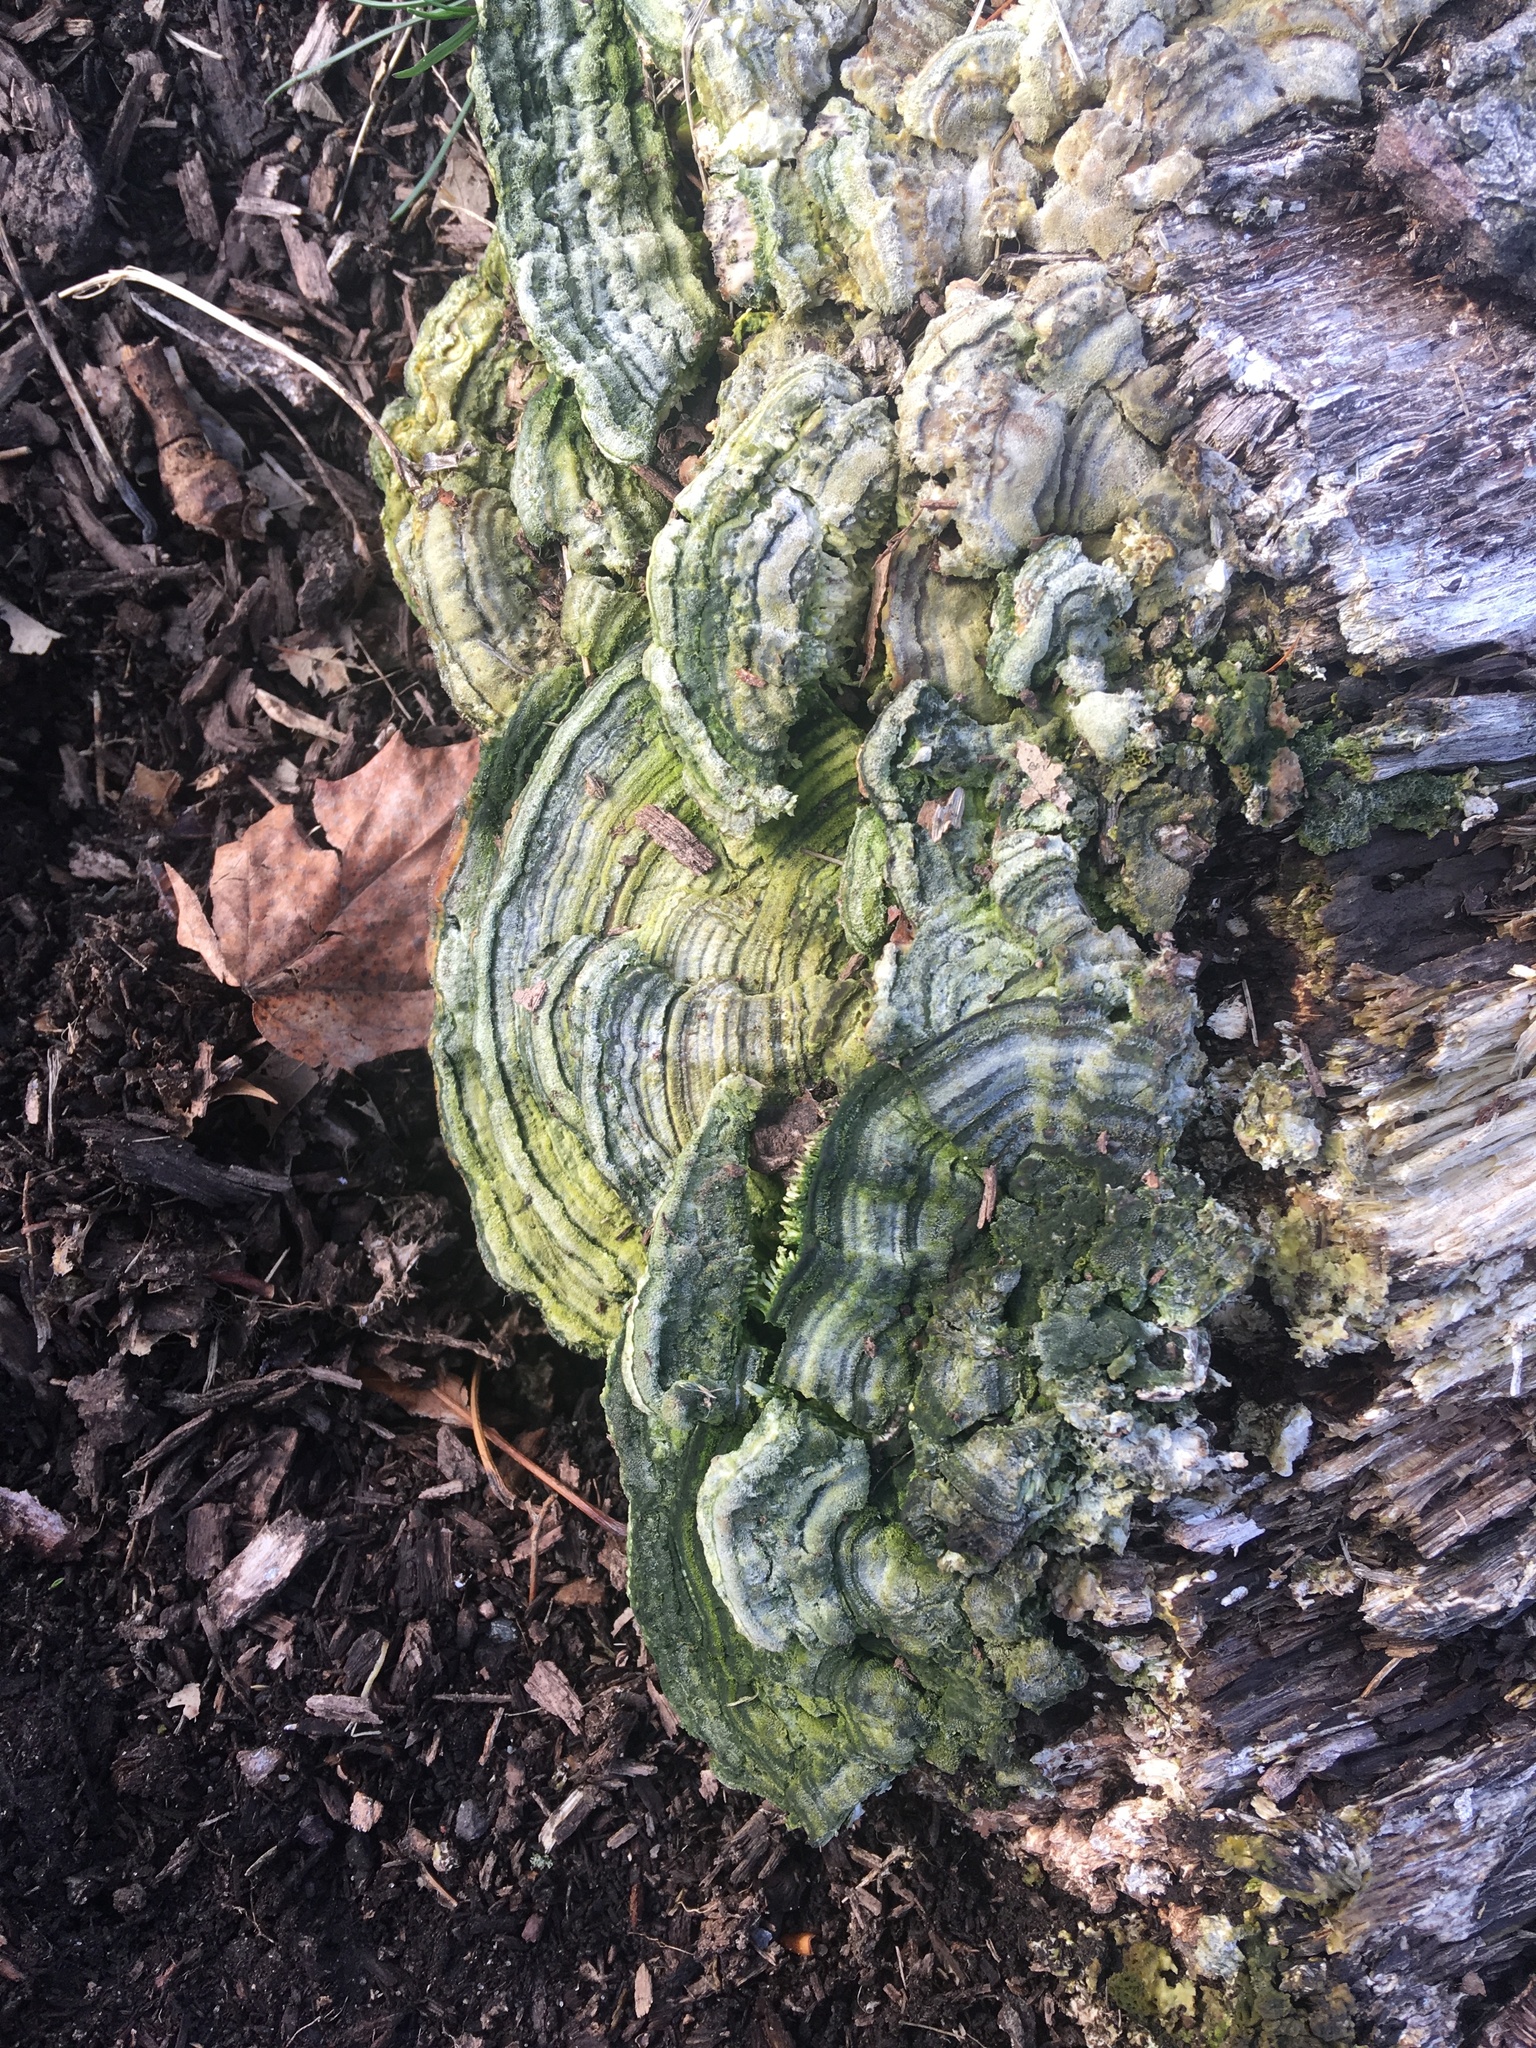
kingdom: Fungi
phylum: Basidiomycota
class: Agaricomycetes
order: Polyporales
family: Polyporaceae
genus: Lenzites
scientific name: Lenzites betulinus
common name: Birch mazegill
